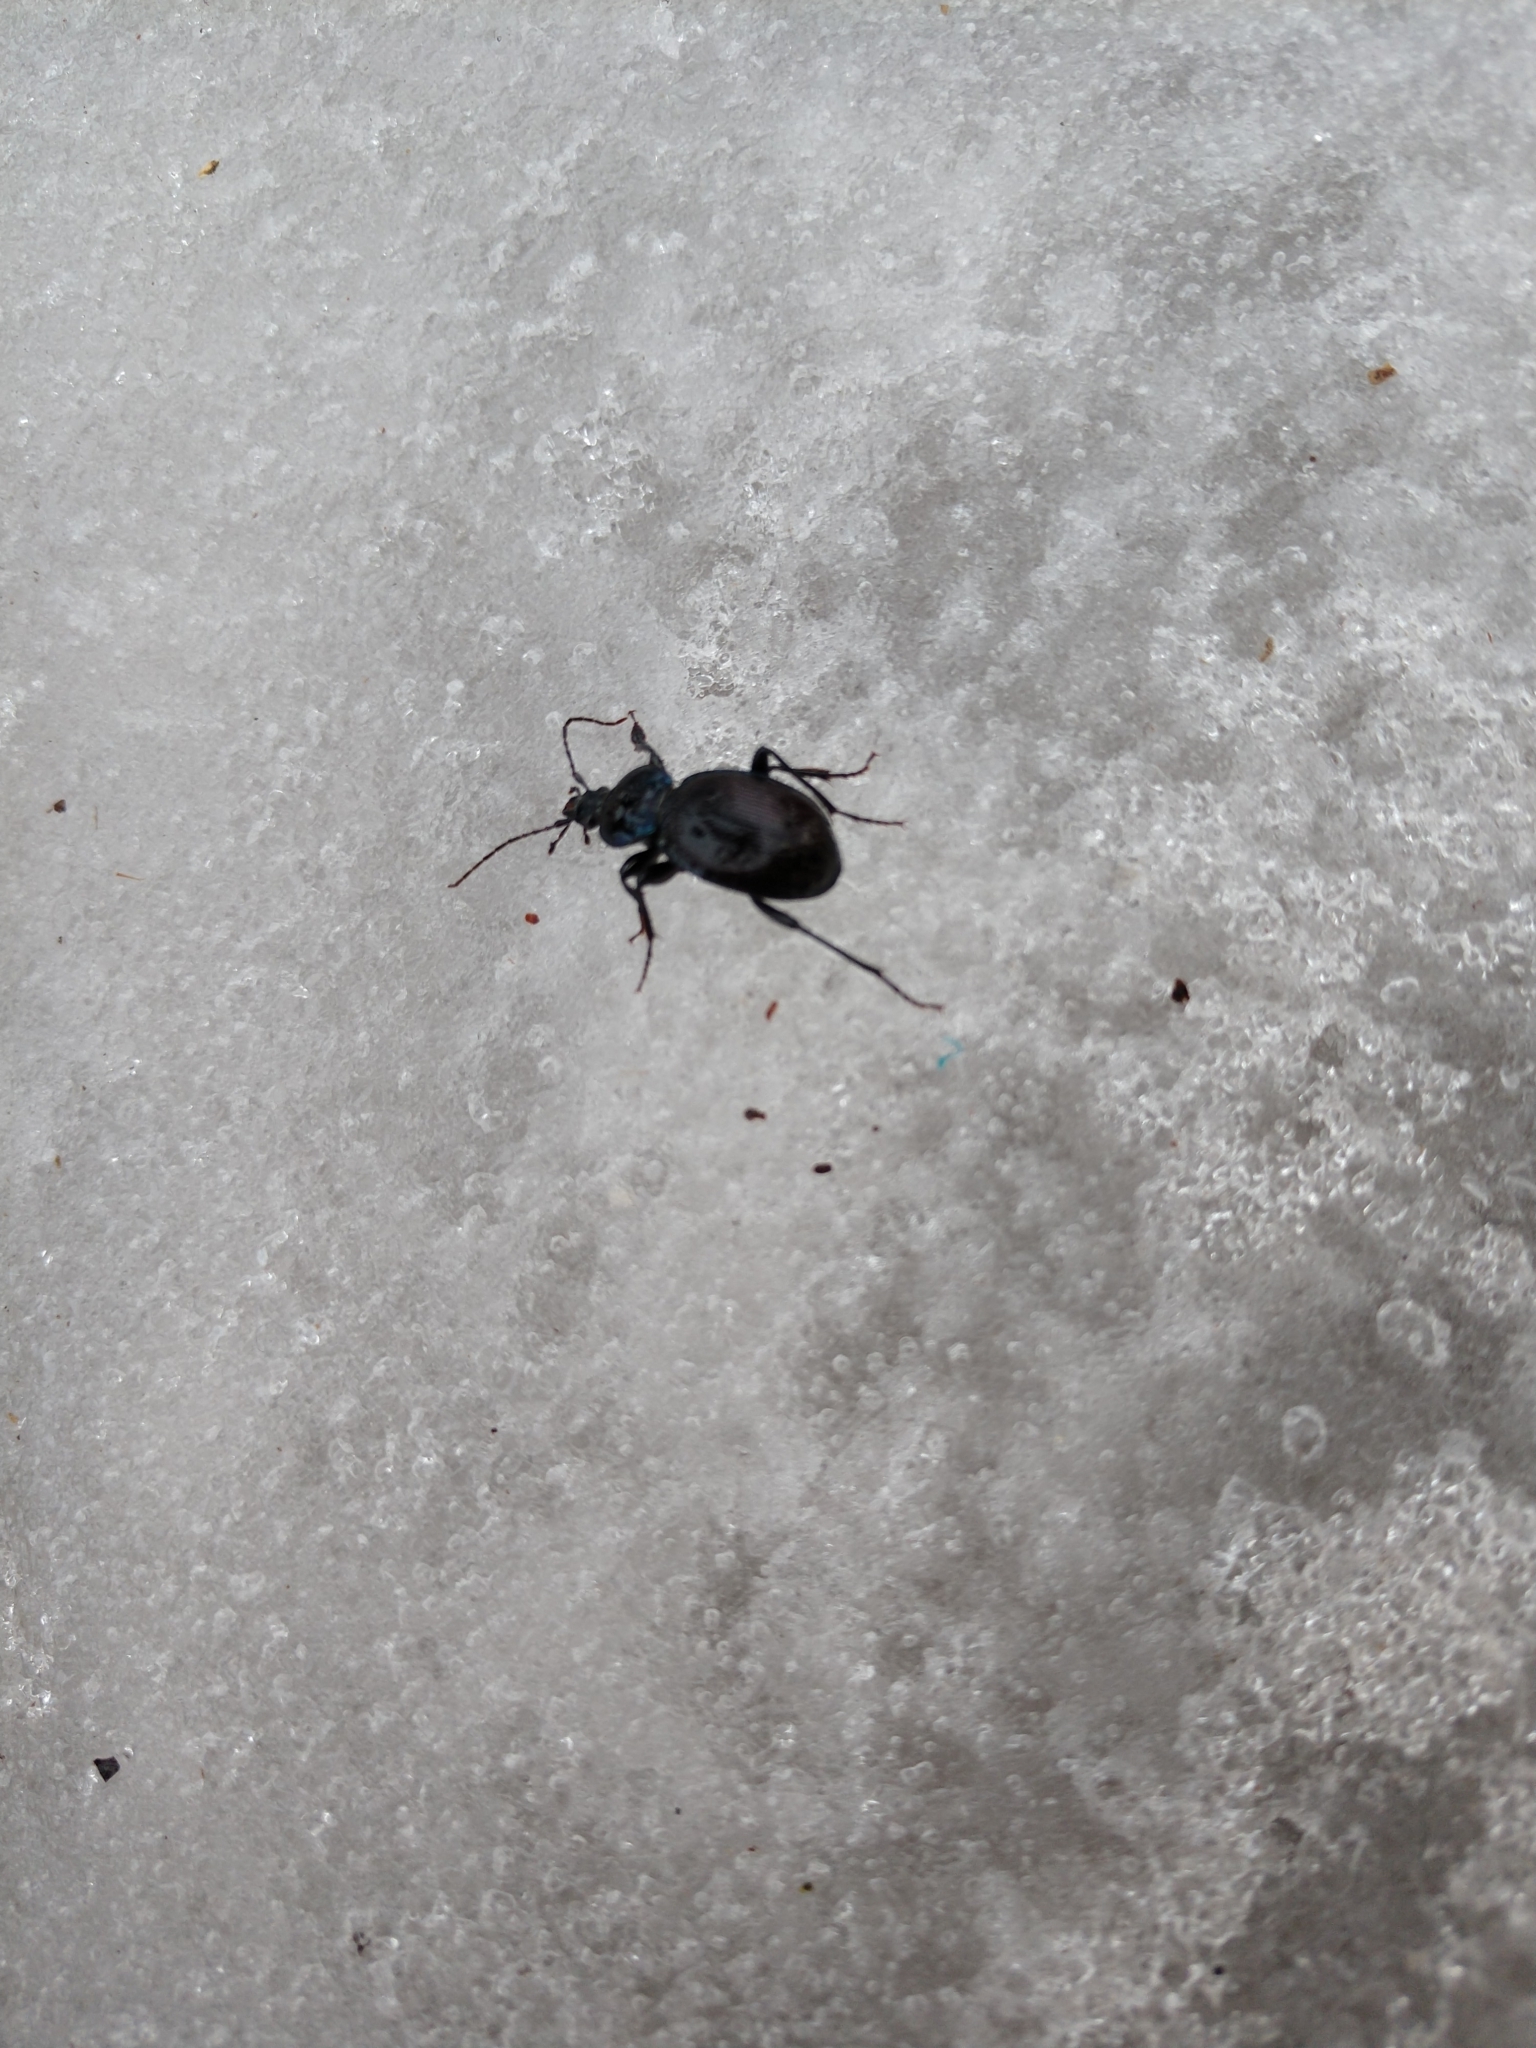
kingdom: Animalia
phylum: Arthropoda
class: Insecta
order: Coleoptera
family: Carabidae
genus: Sphaeroderus
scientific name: Sphaeroderus stenostomus
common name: Small snail-eating ground beetle
